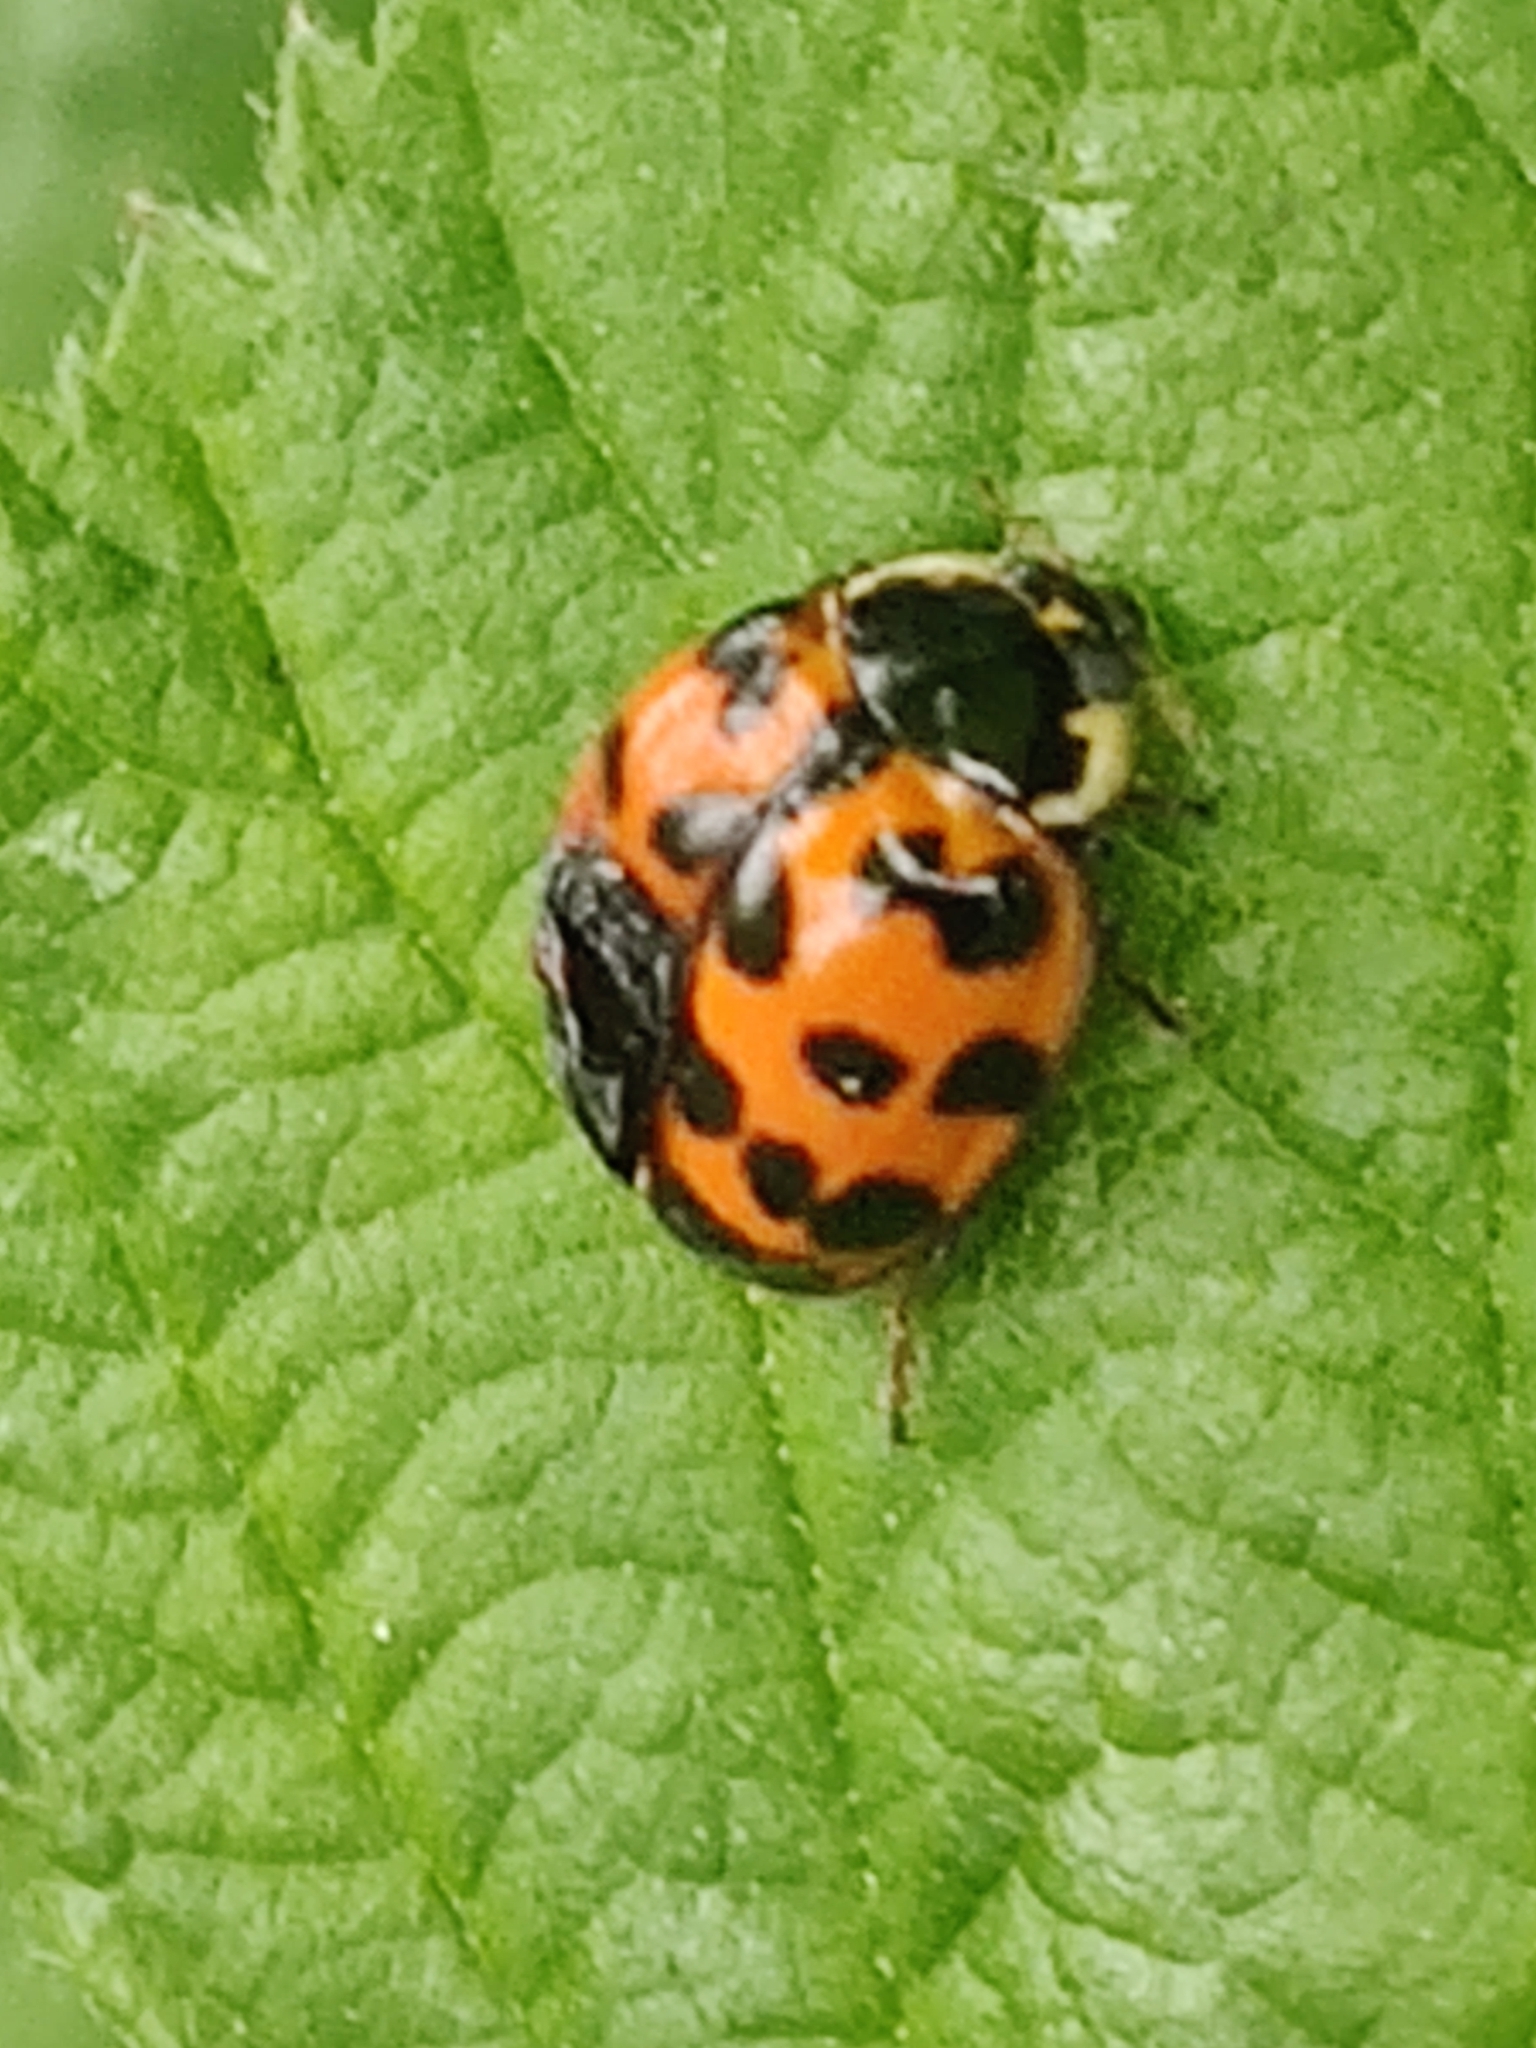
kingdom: Animalia
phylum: Arthropoda
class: Insecta
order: Coleoptera
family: Coccinellidae
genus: Harmonia
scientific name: Harmonia axyridis
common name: Harlequin ladybird
